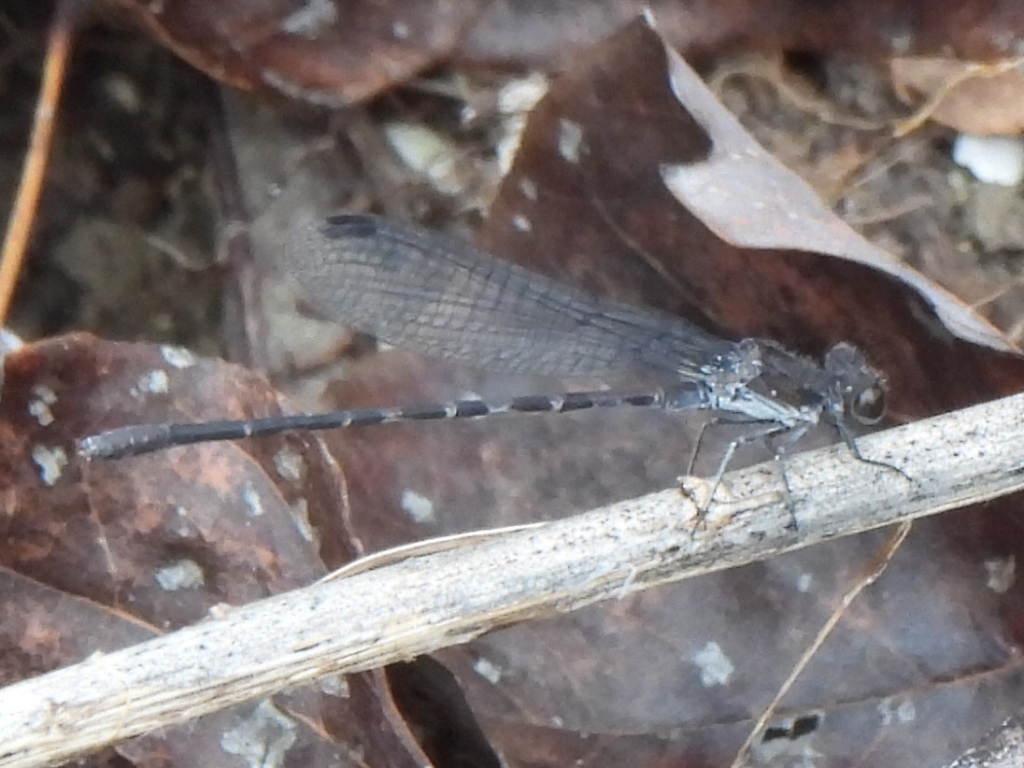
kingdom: Animalia
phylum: Arthropoda
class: Insecta
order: Odonata
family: Coenagrionidae
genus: Argia
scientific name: Argia immunda
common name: Kiowa dancer
